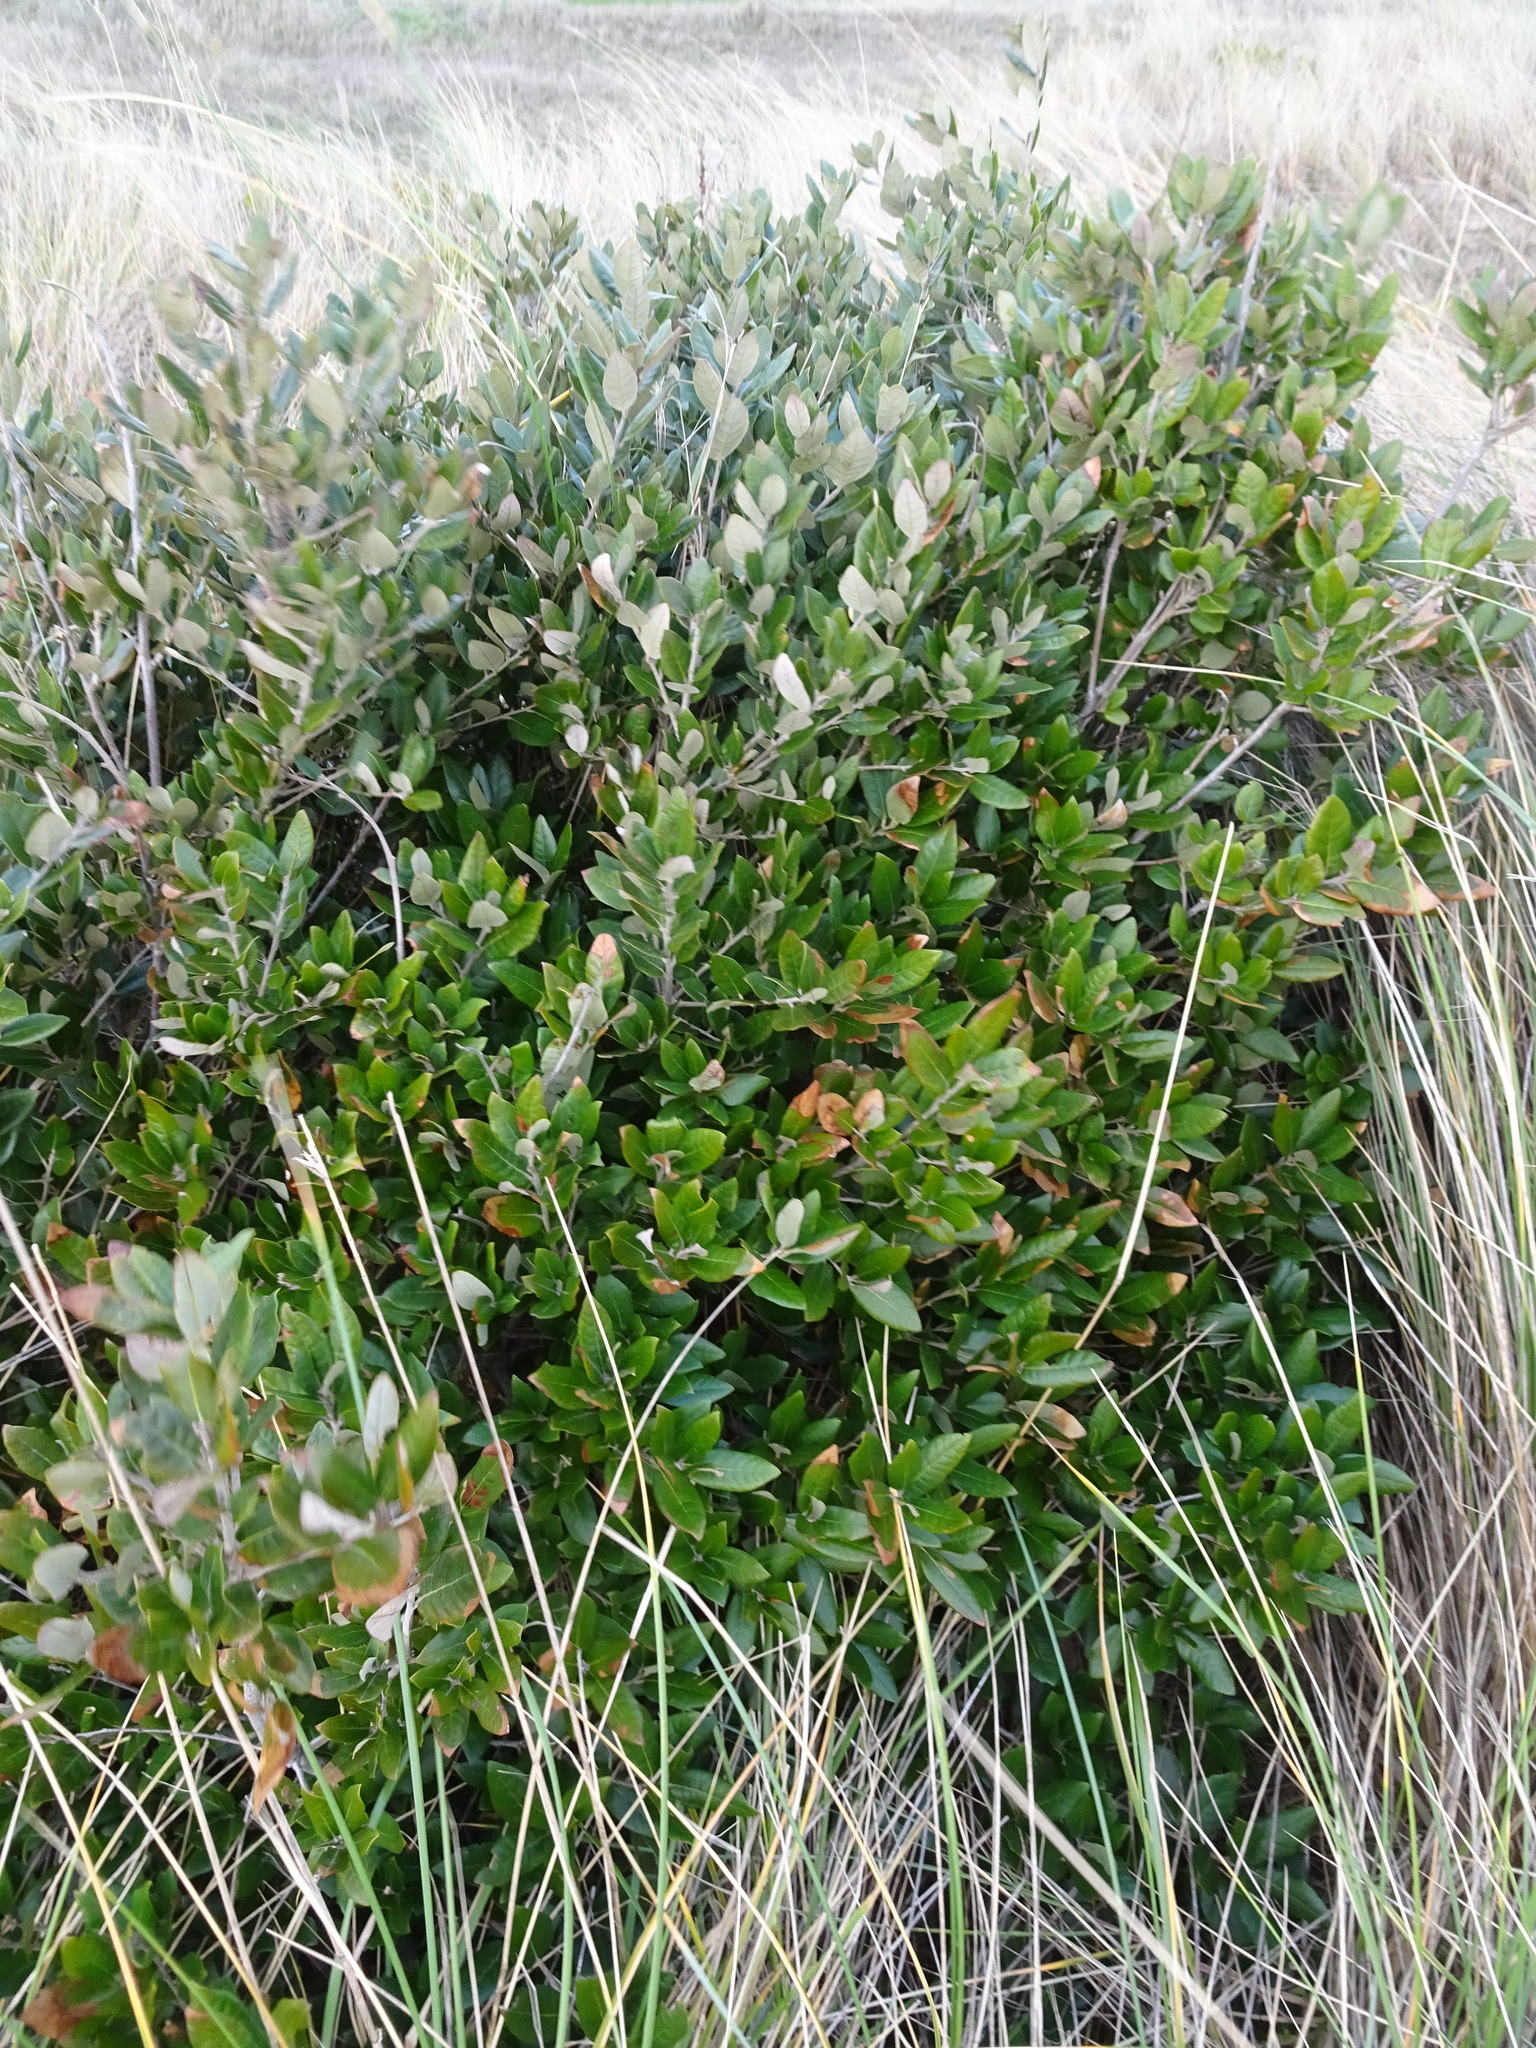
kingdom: Plantae
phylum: Tracheophyta
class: Magnoliopsida
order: Fagales
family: Fagaceae
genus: Quercus
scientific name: Quercus ilex
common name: Evergreen oak
